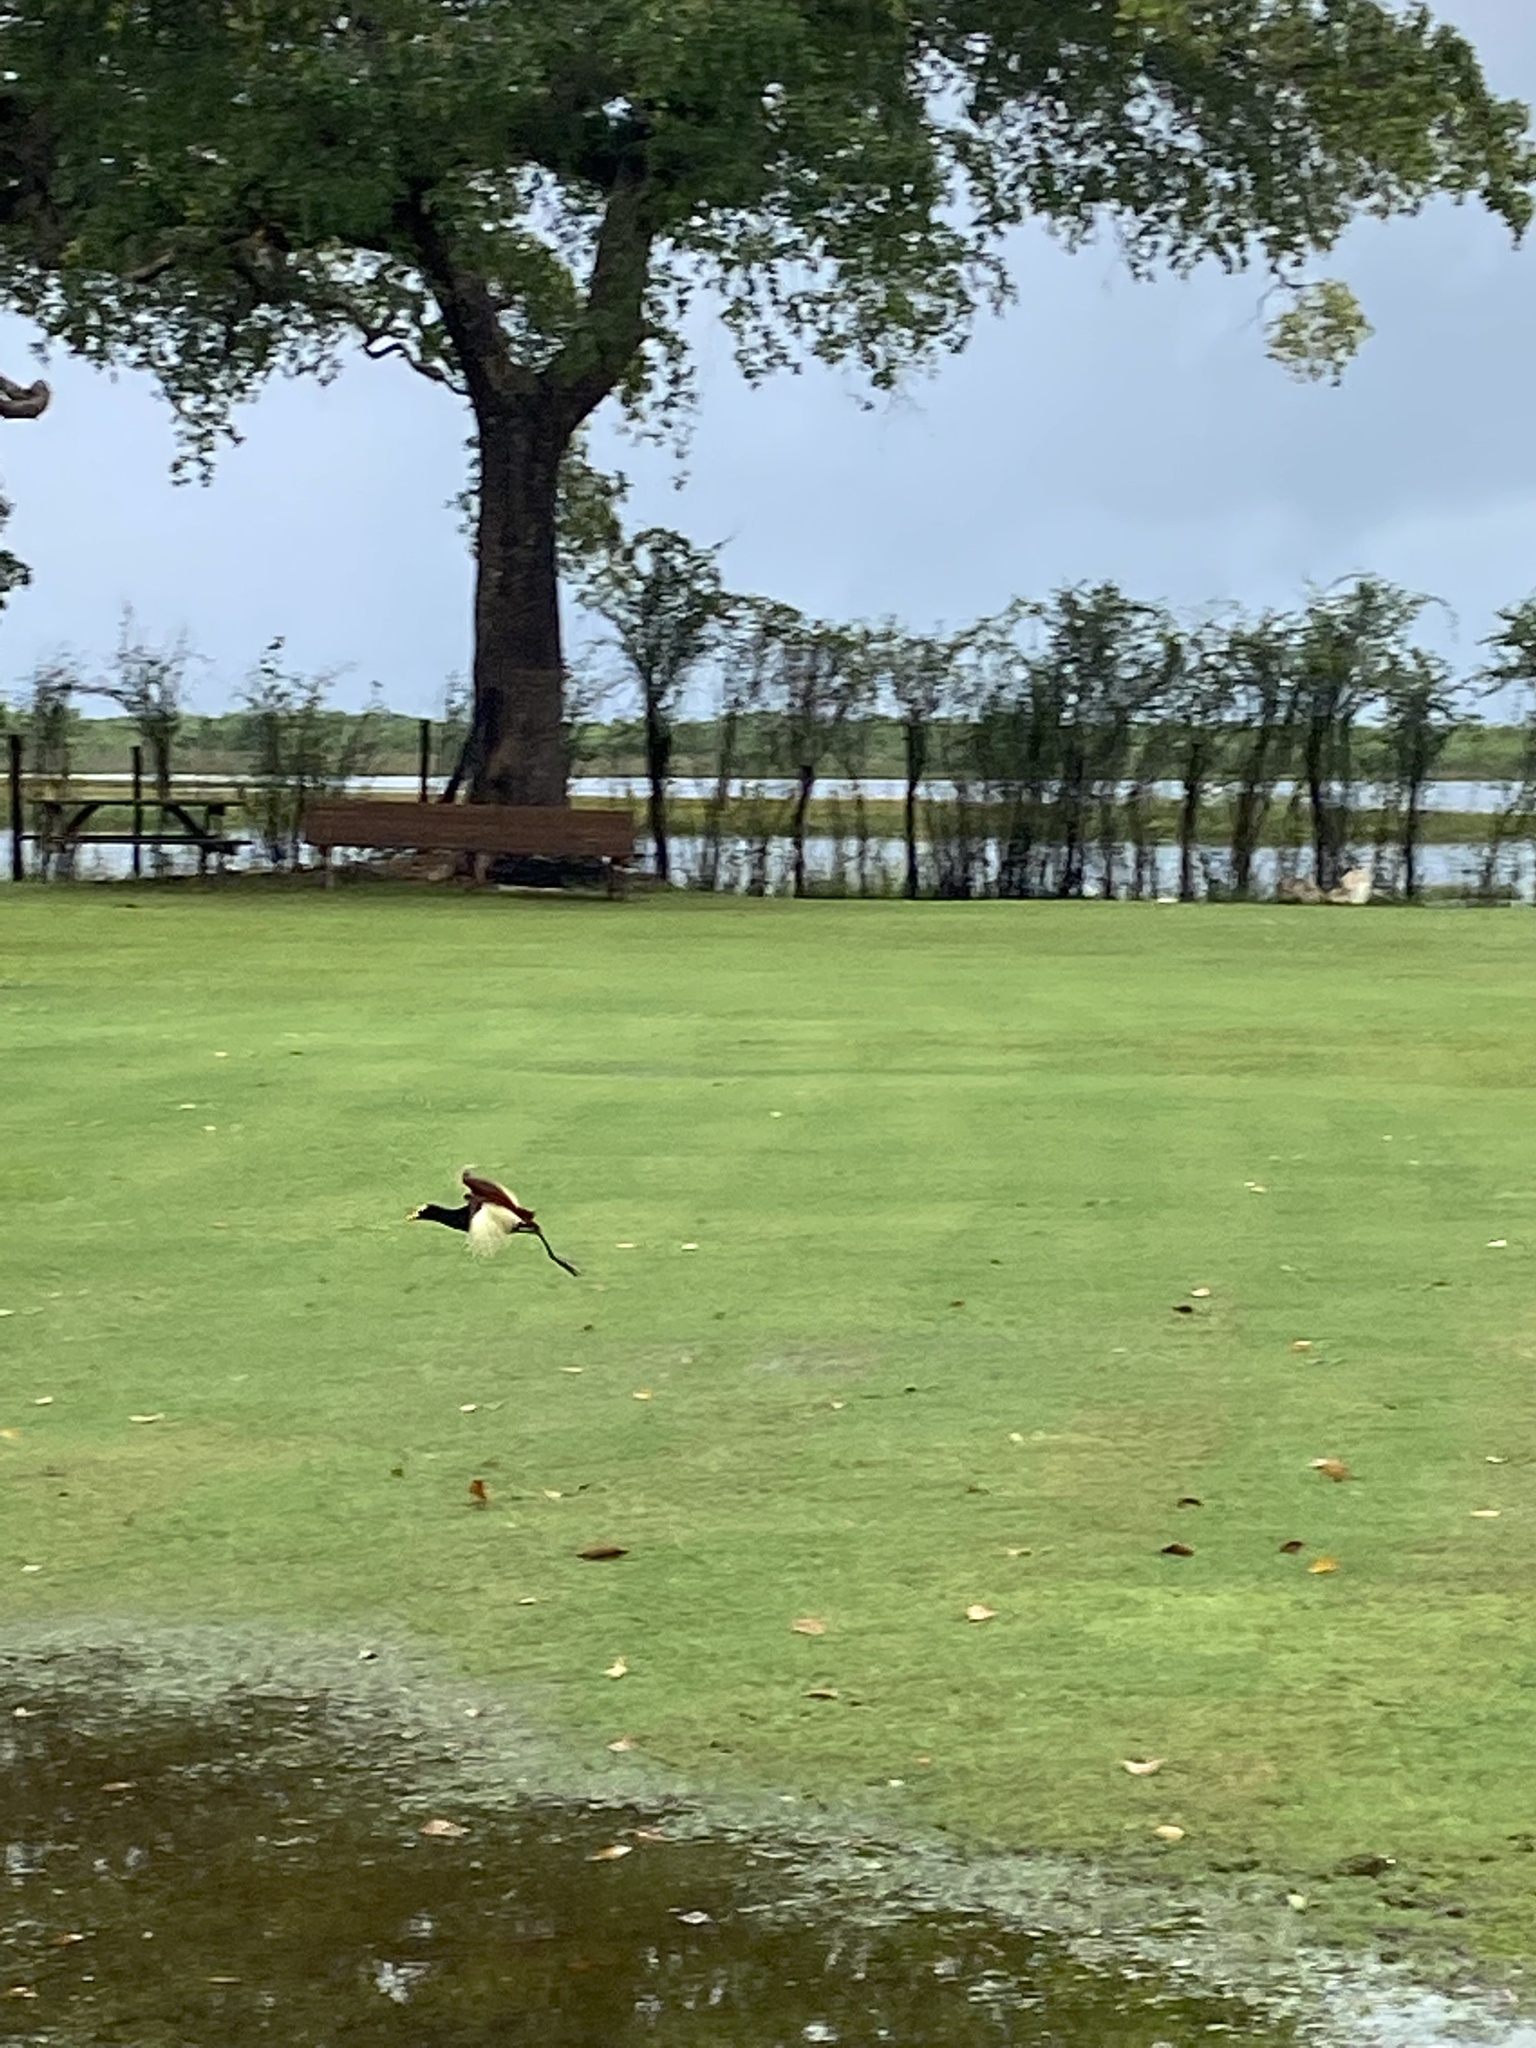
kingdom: Animalia
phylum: Chordata
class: Aves
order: Charadriiformes
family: Jacanidae
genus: Jacana
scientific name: Jacana spinosa
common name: Northern jacana
